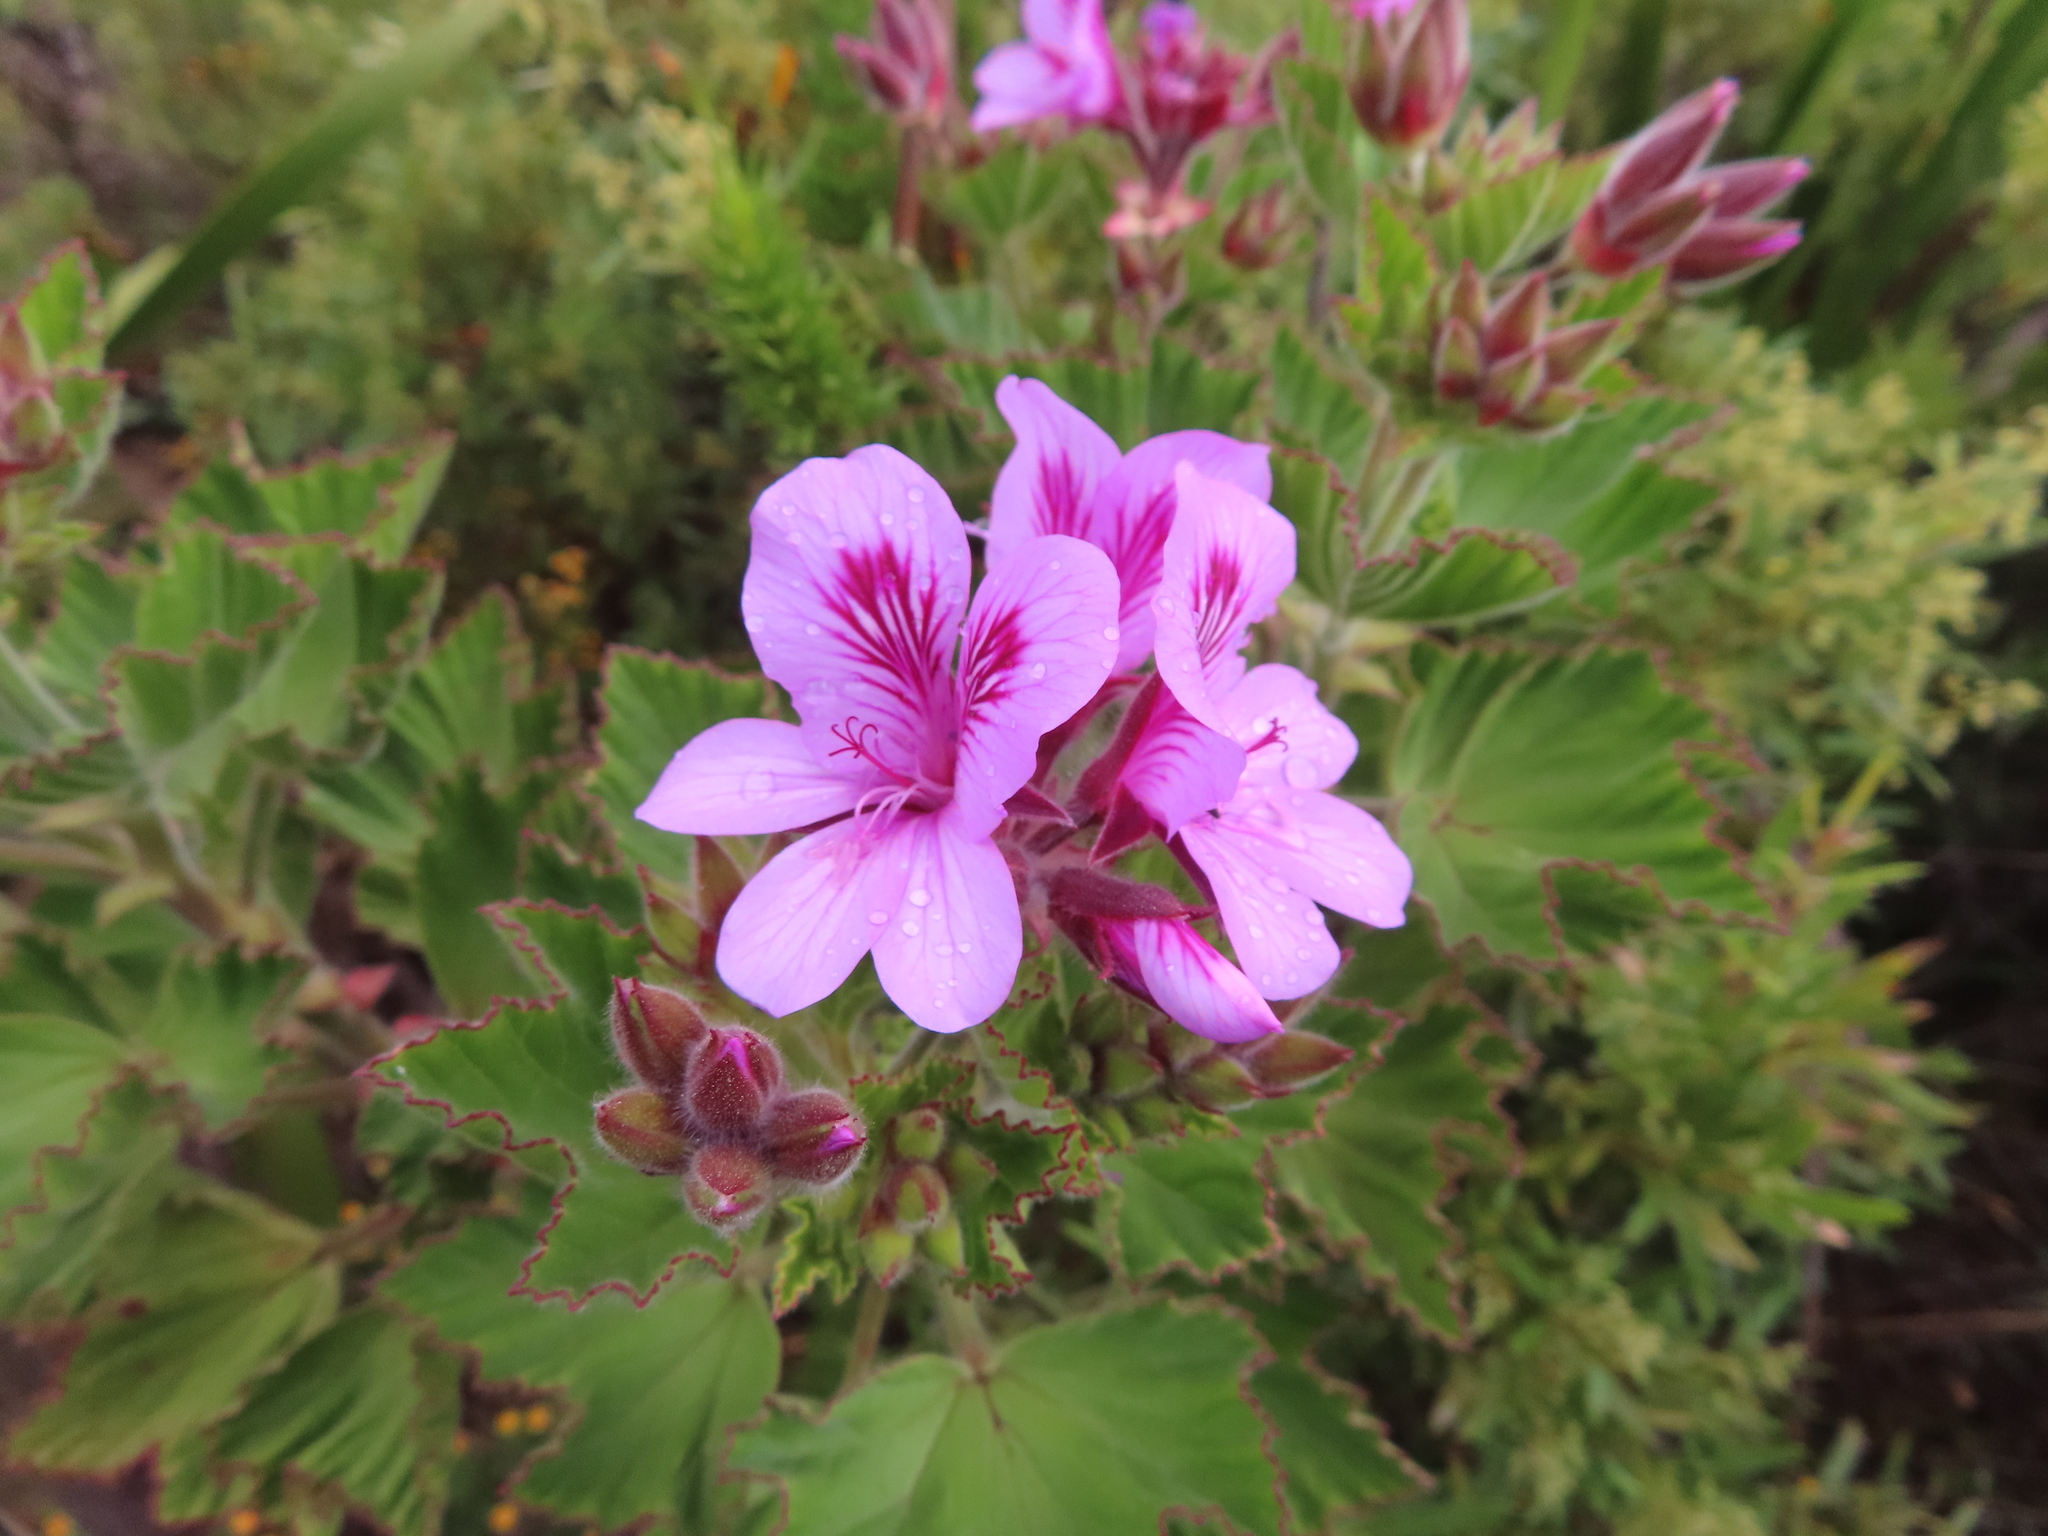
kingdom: Plantae
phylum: Tracheophyta
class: Magnoliopsida
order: Geraniales
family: Geraniaceae
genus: Pelargonium
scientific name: Pelargonium cucullatum
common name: Tree pelargonium
